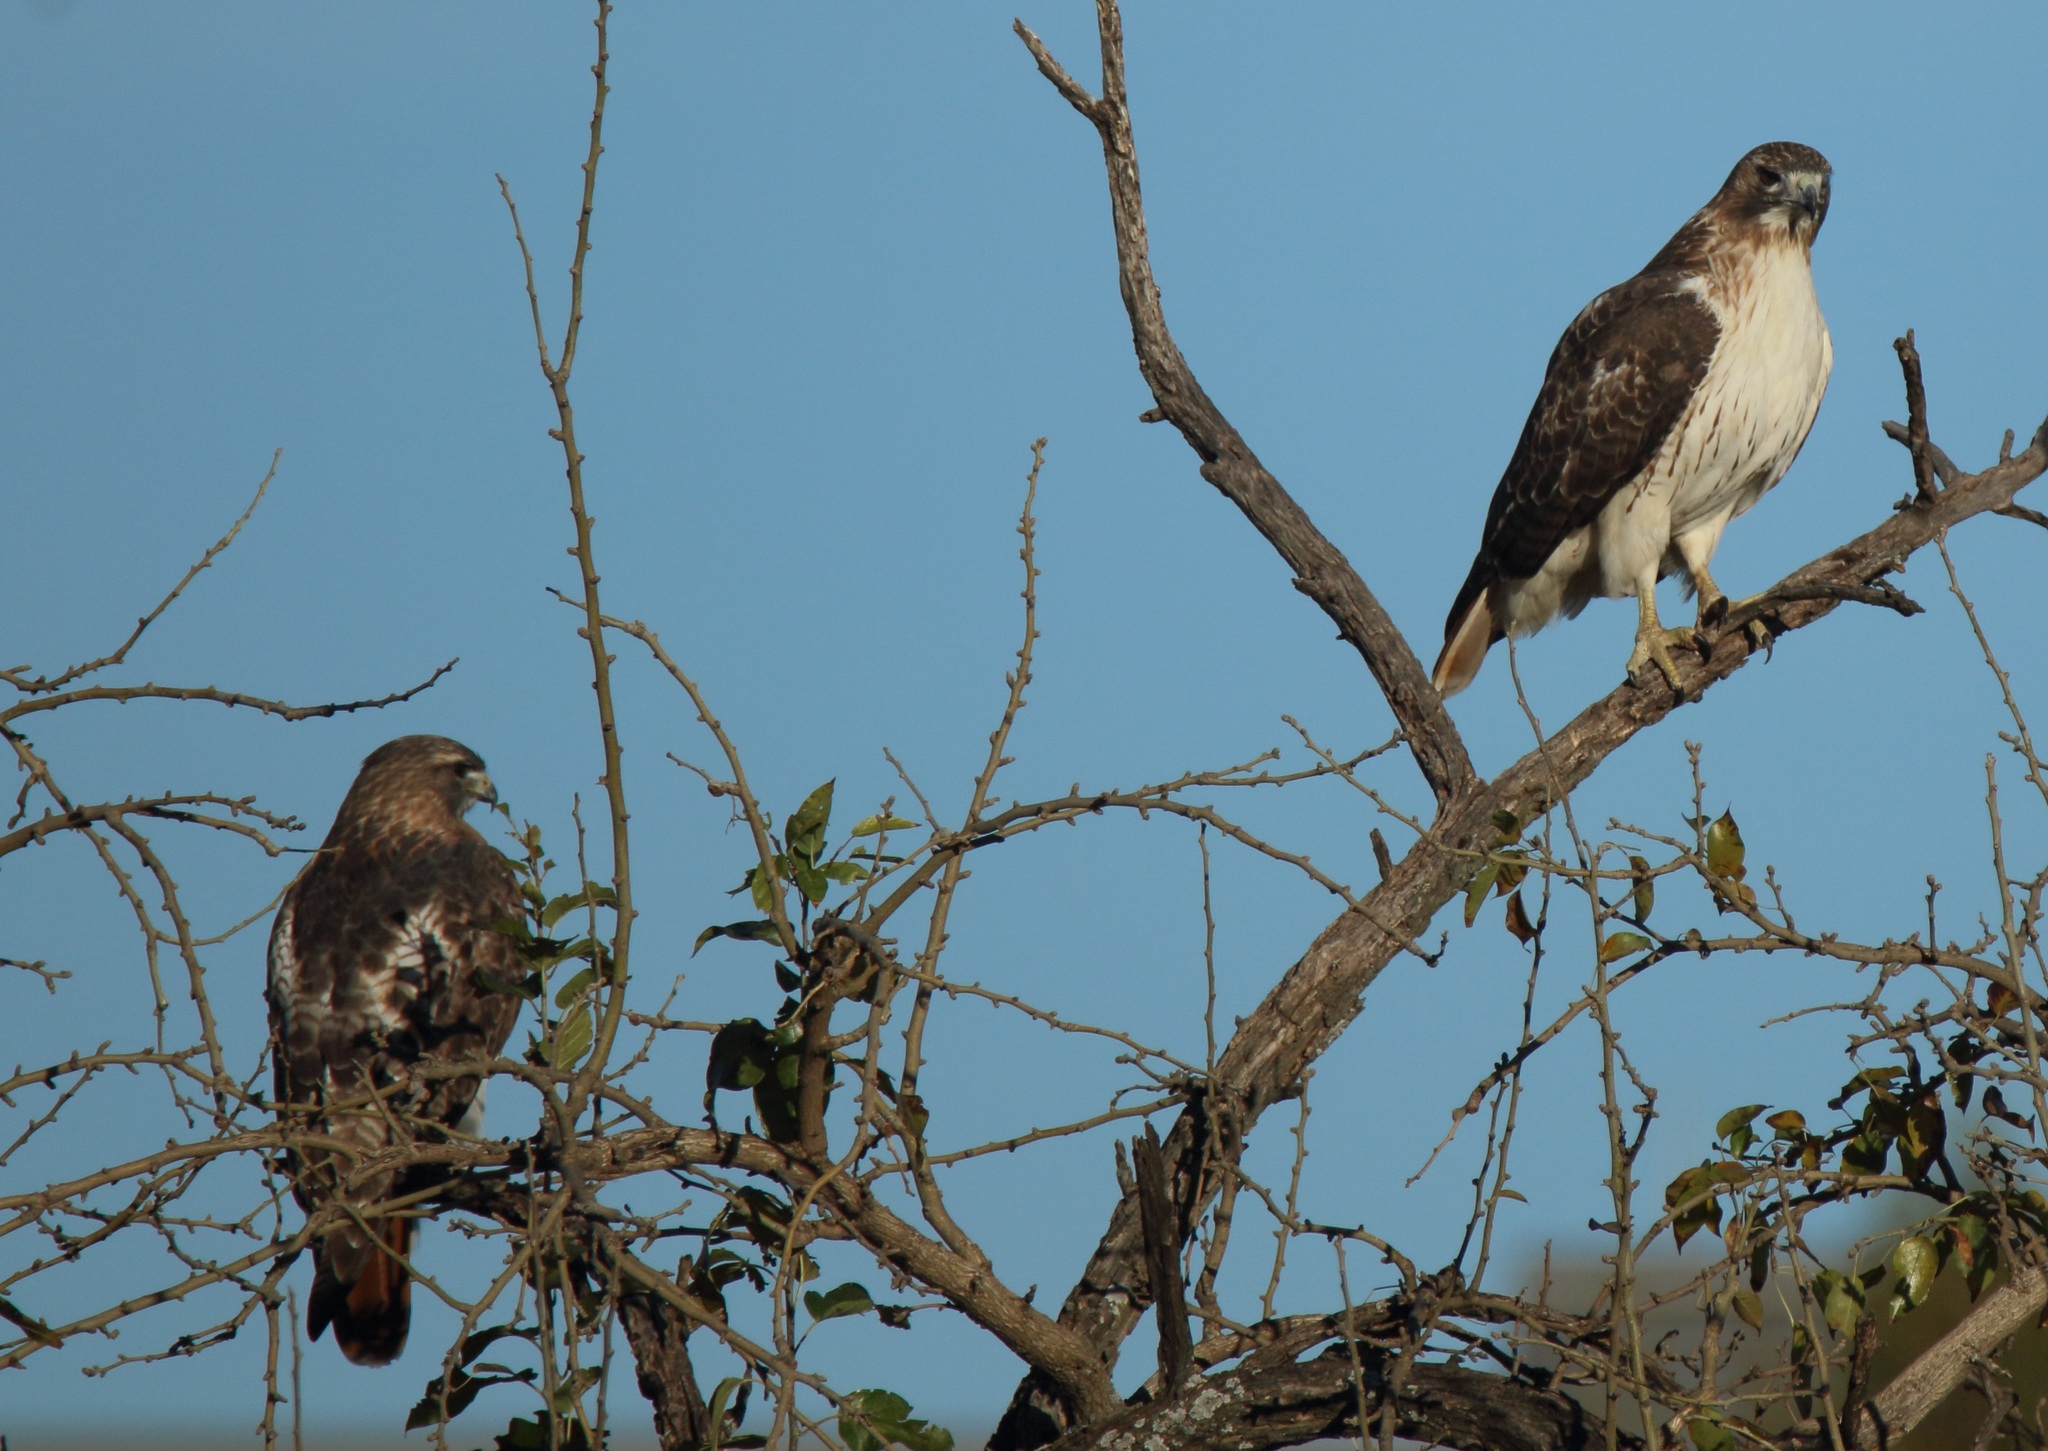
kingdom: Animalia
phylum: Chordata
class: Aves
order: Accipitriformes
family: Accipitridae
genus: Buteo
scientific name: Buteo jamaicensis
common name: Red-tailed hawk
